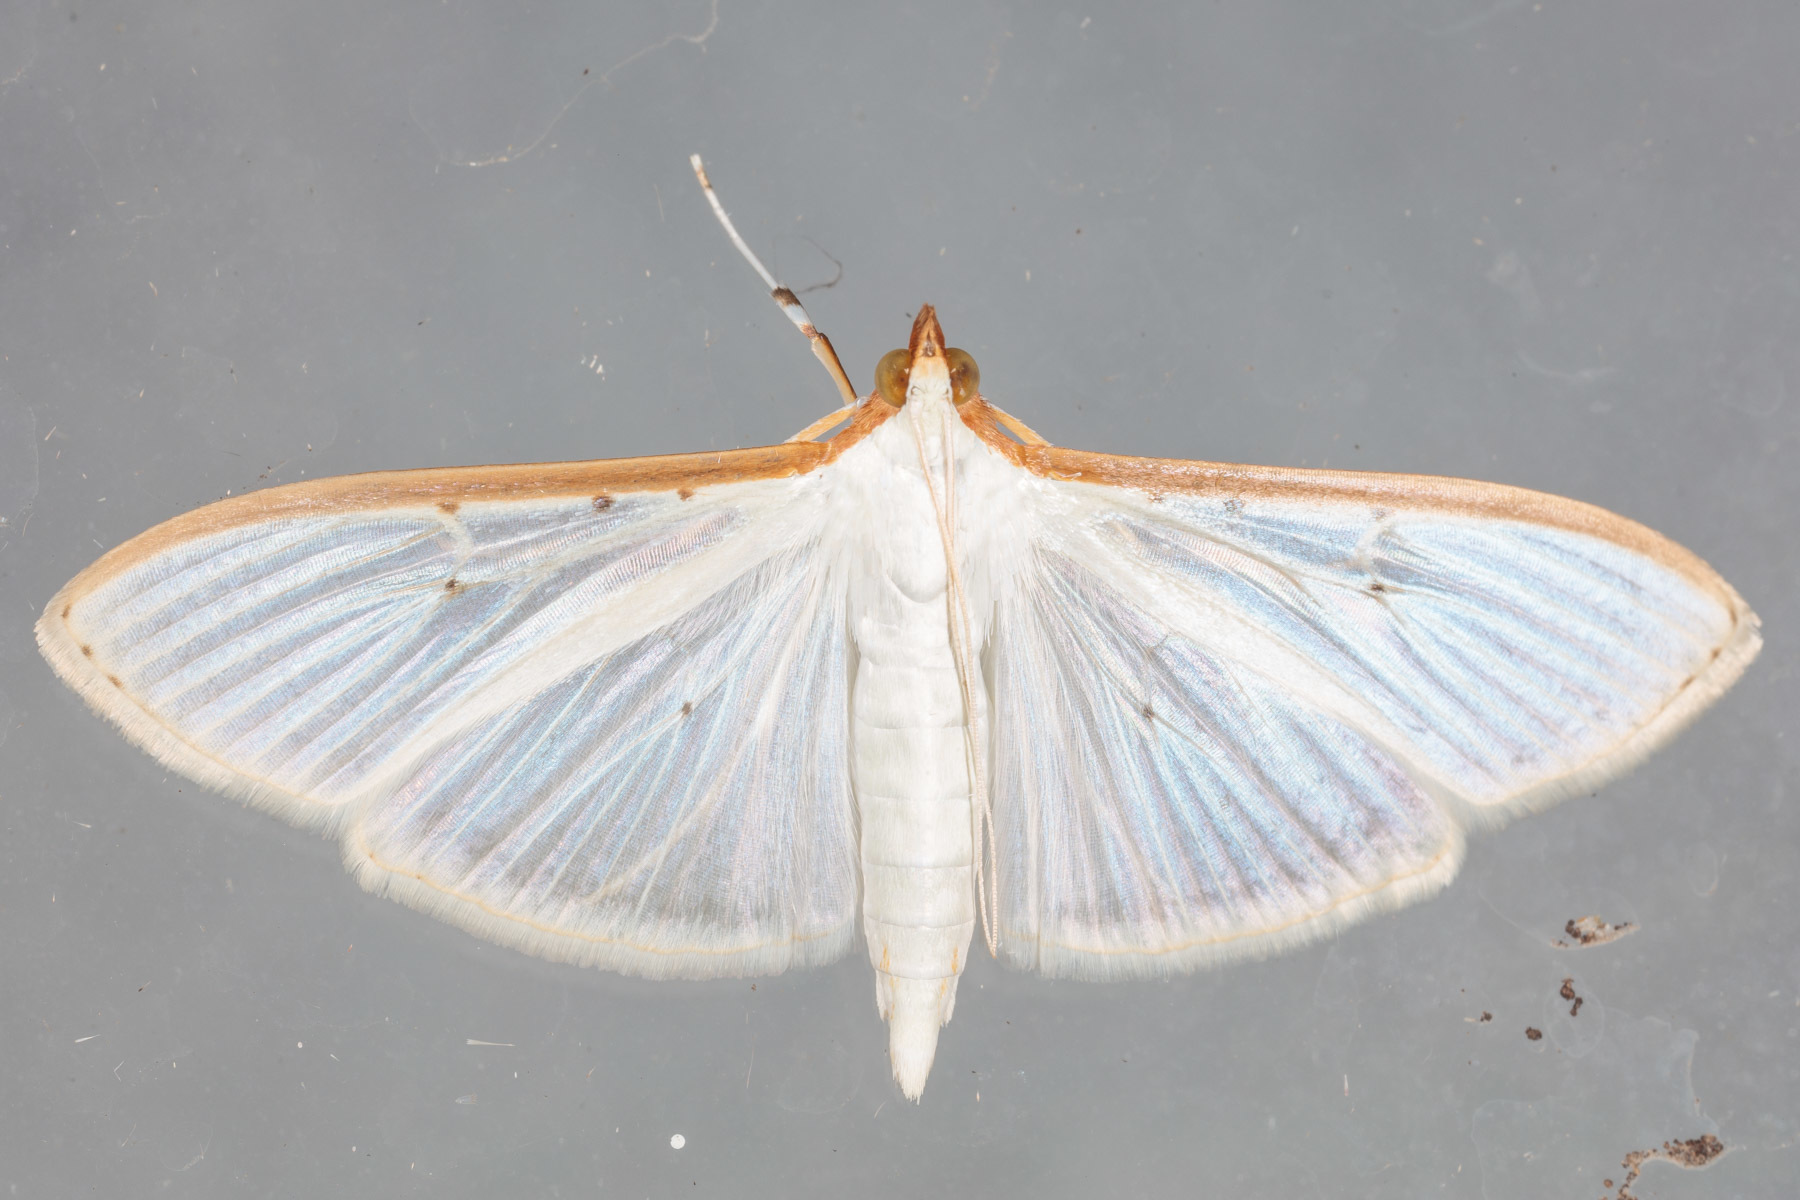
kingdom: Animalia
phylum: Arthropoda
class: Insecta
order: Lepidoptera
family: Crambidae
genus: Palpita
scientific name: Palpita quadristigmalis
